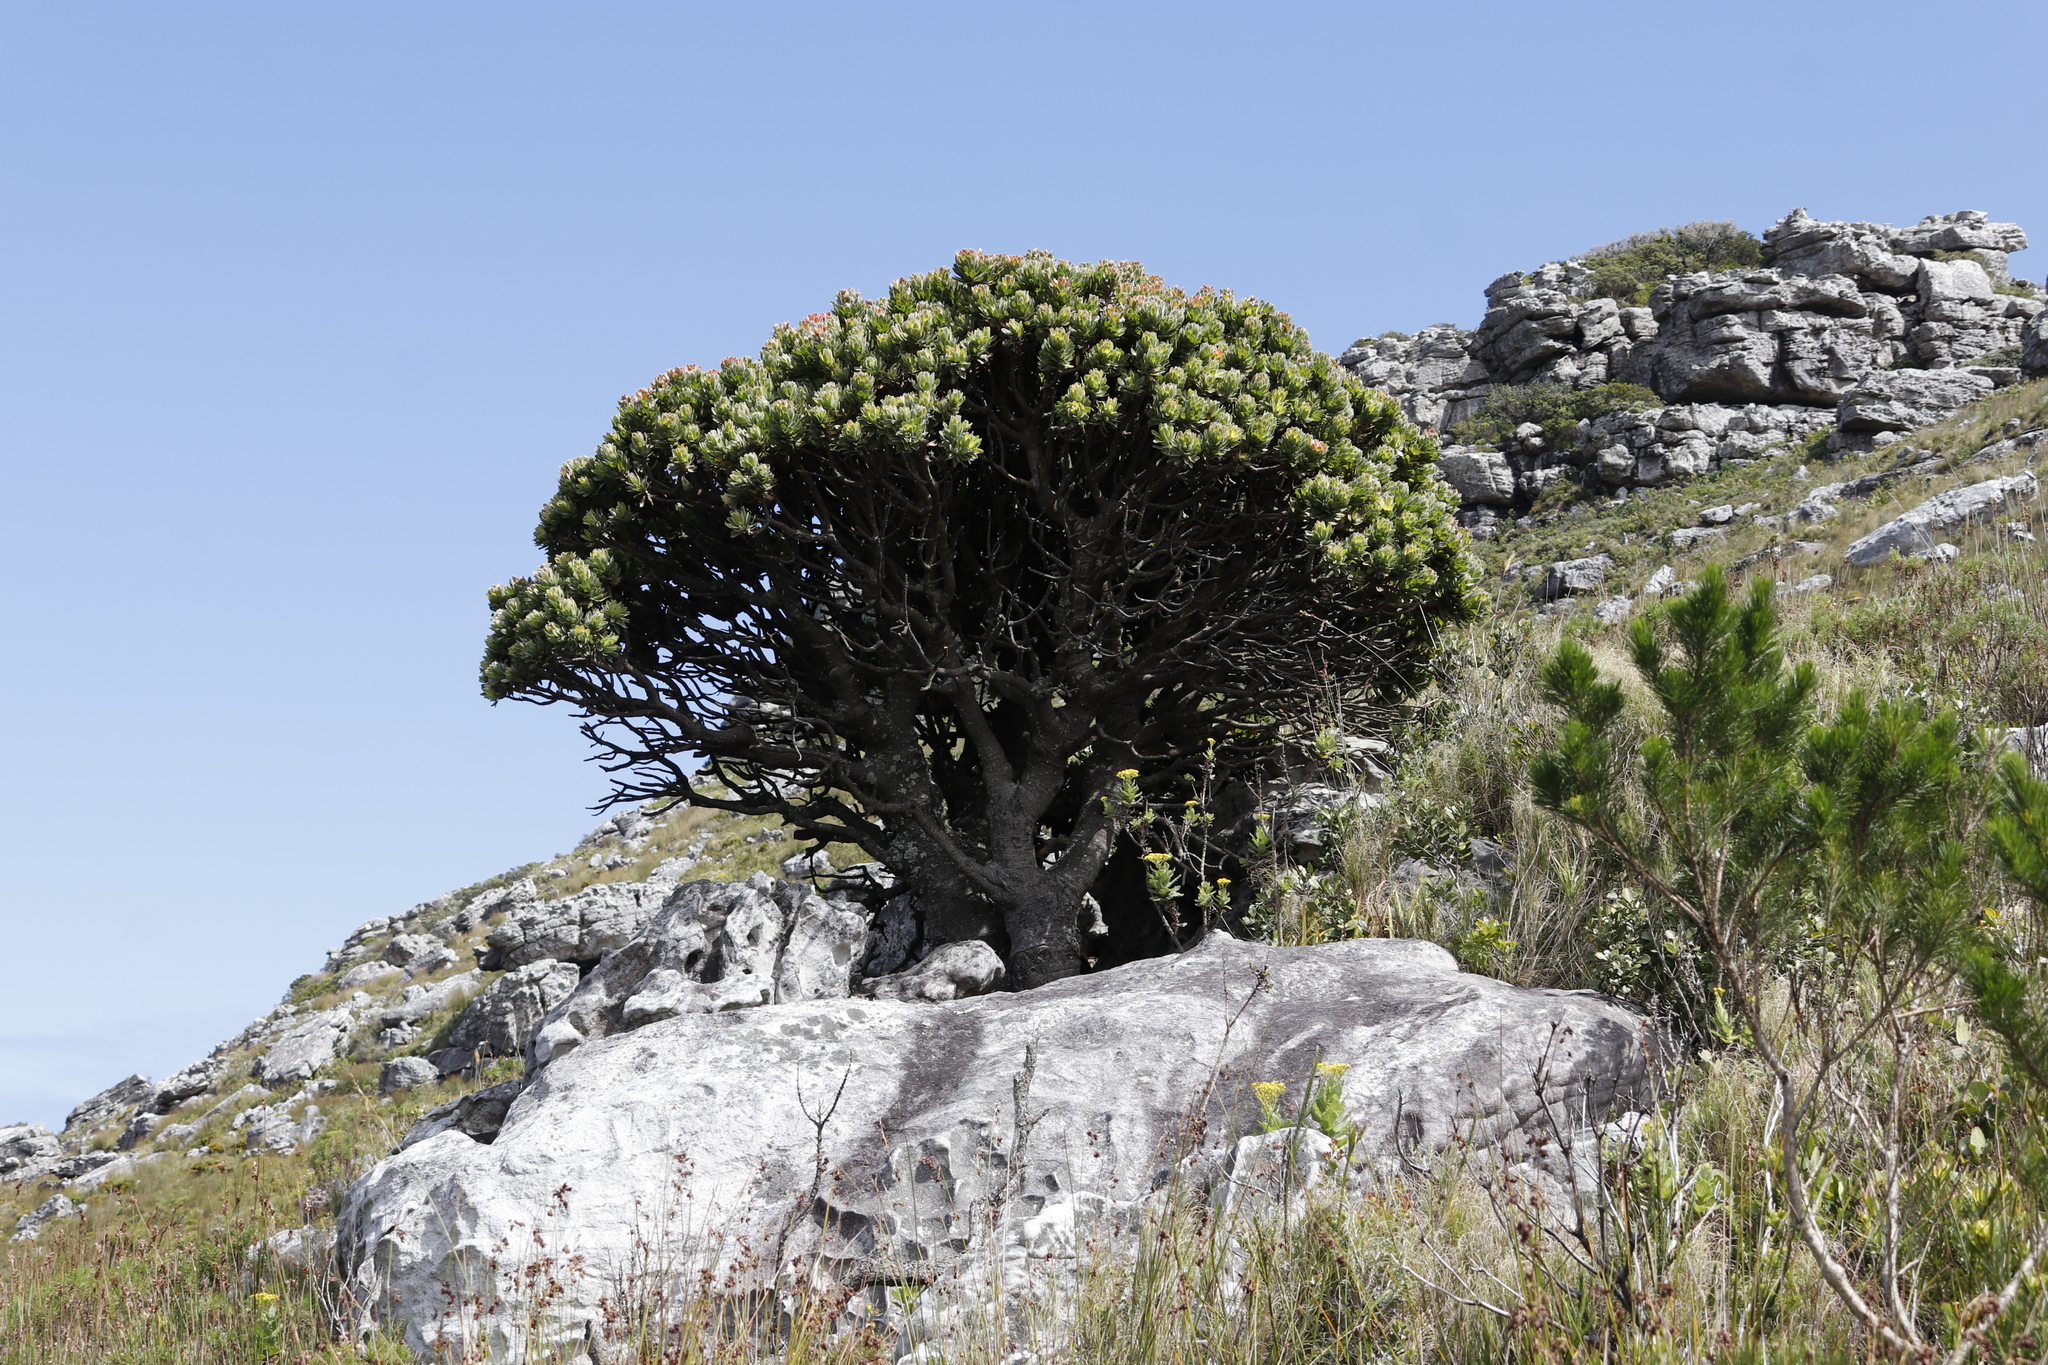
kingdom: Plantae
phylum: Tracheophyta
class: Magnoliopsida
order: Proteales
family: Proteaceae
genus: Mimetes
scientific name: Mimetes fimbriifolius
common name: Fringed bottlebrush
